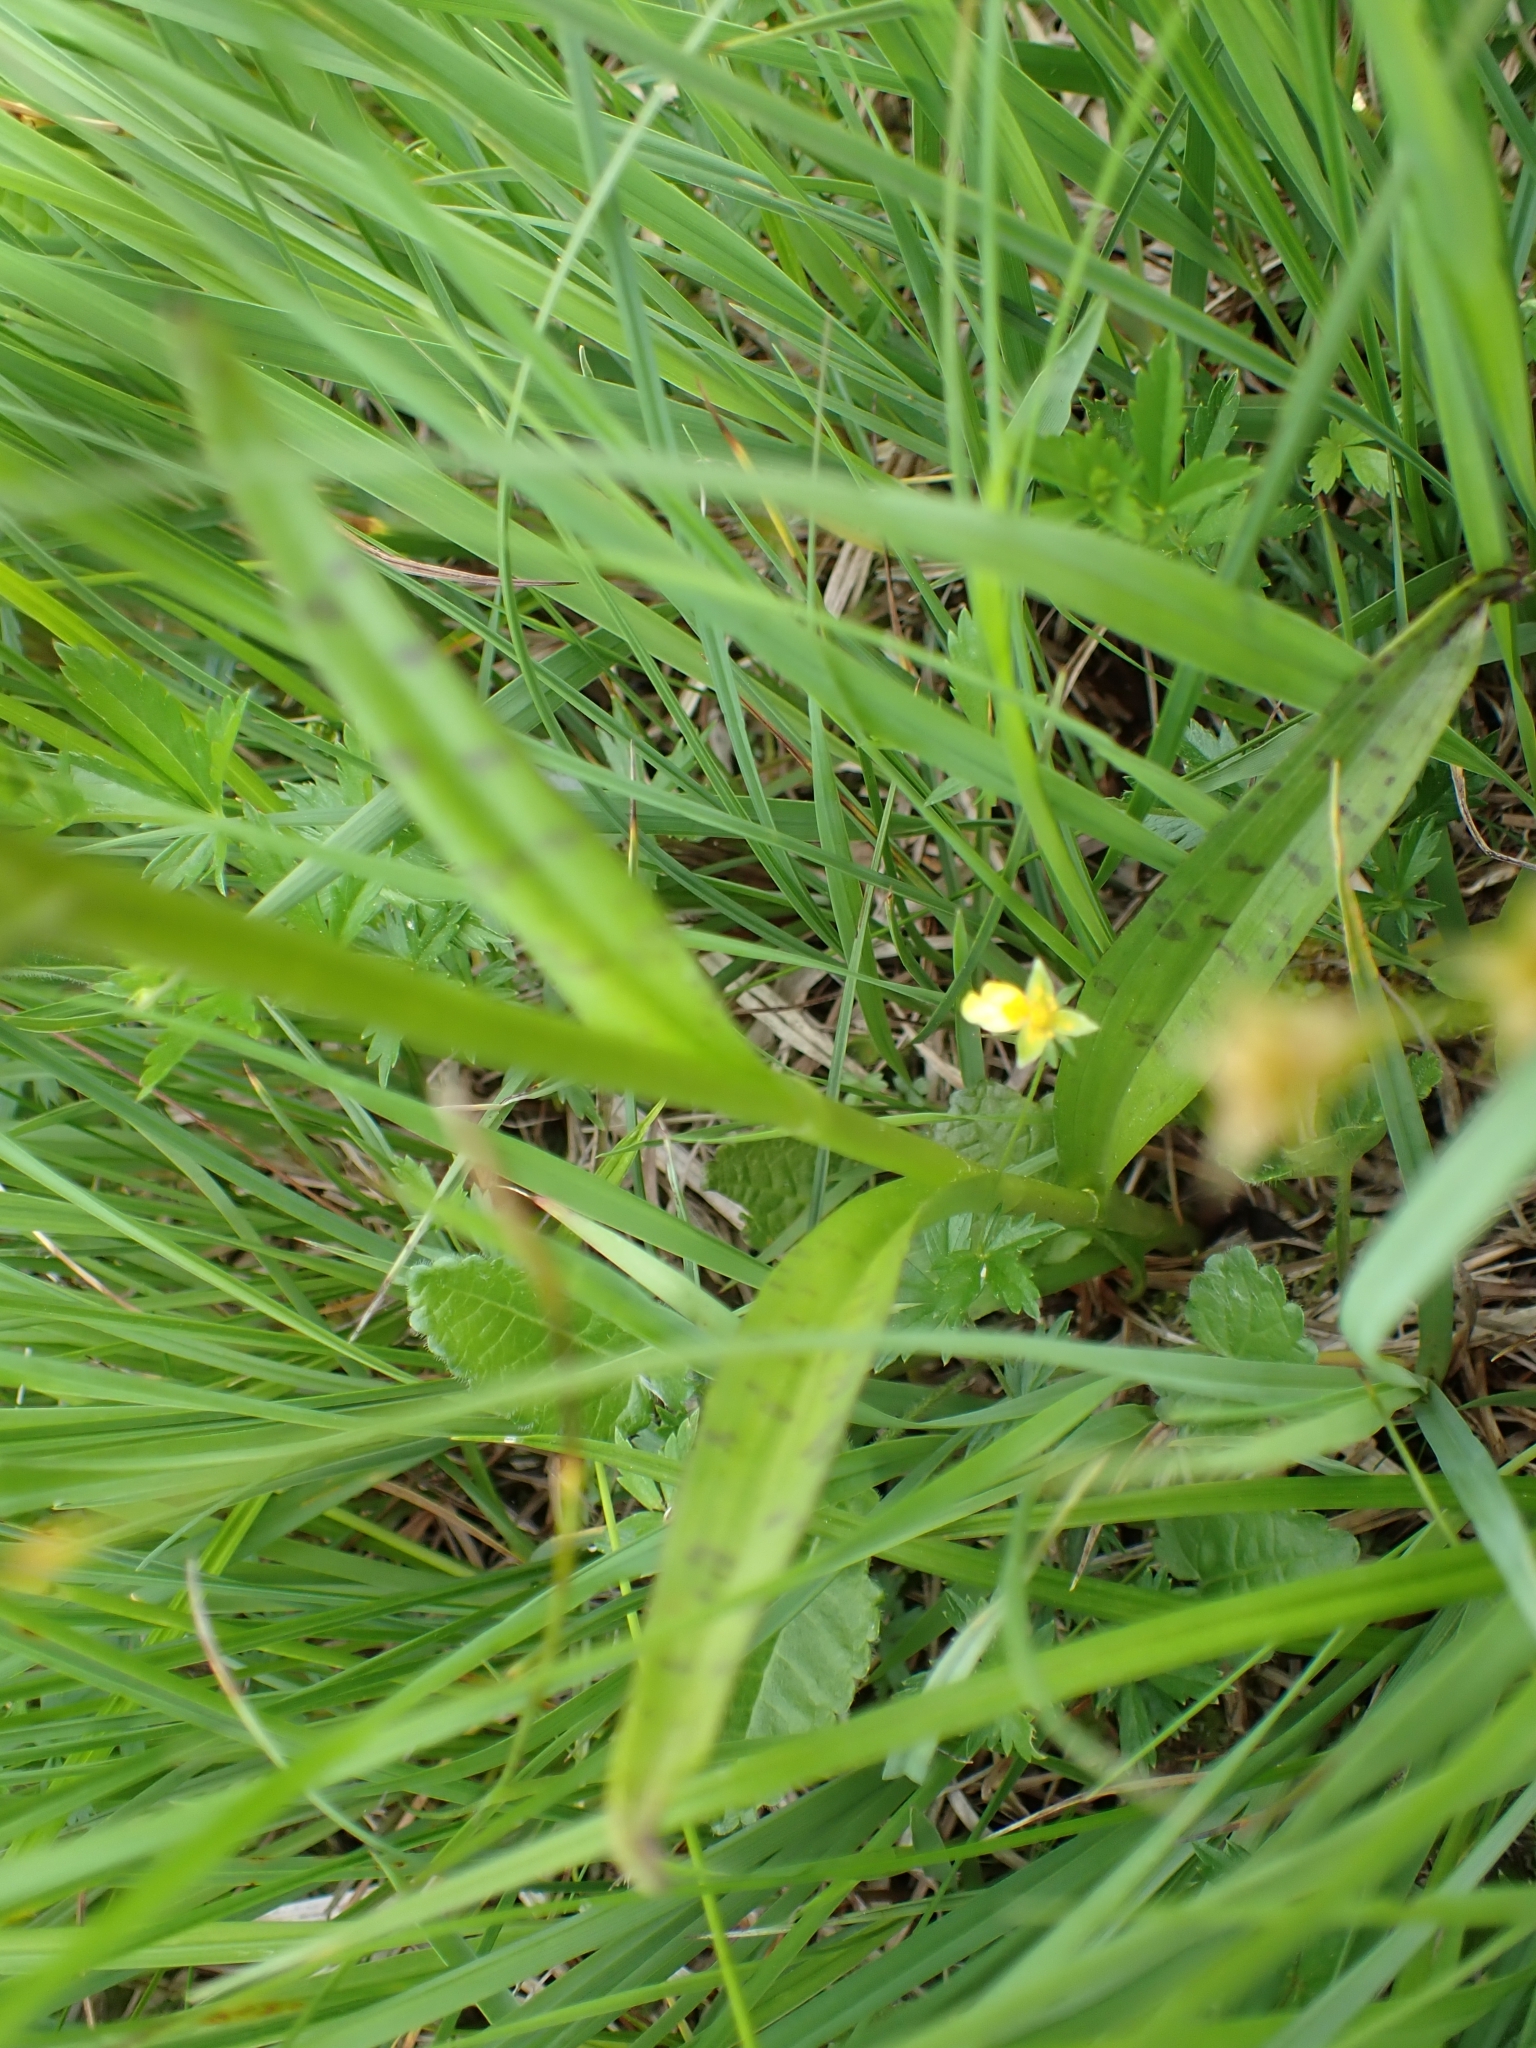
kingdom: Plantae
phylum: Tracheophyta
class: Liliopsida
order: Asparagales
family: Orchidaceae
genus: Dactylorhiza
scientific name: Dactylorhiza majalis
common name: Marsh orchid
